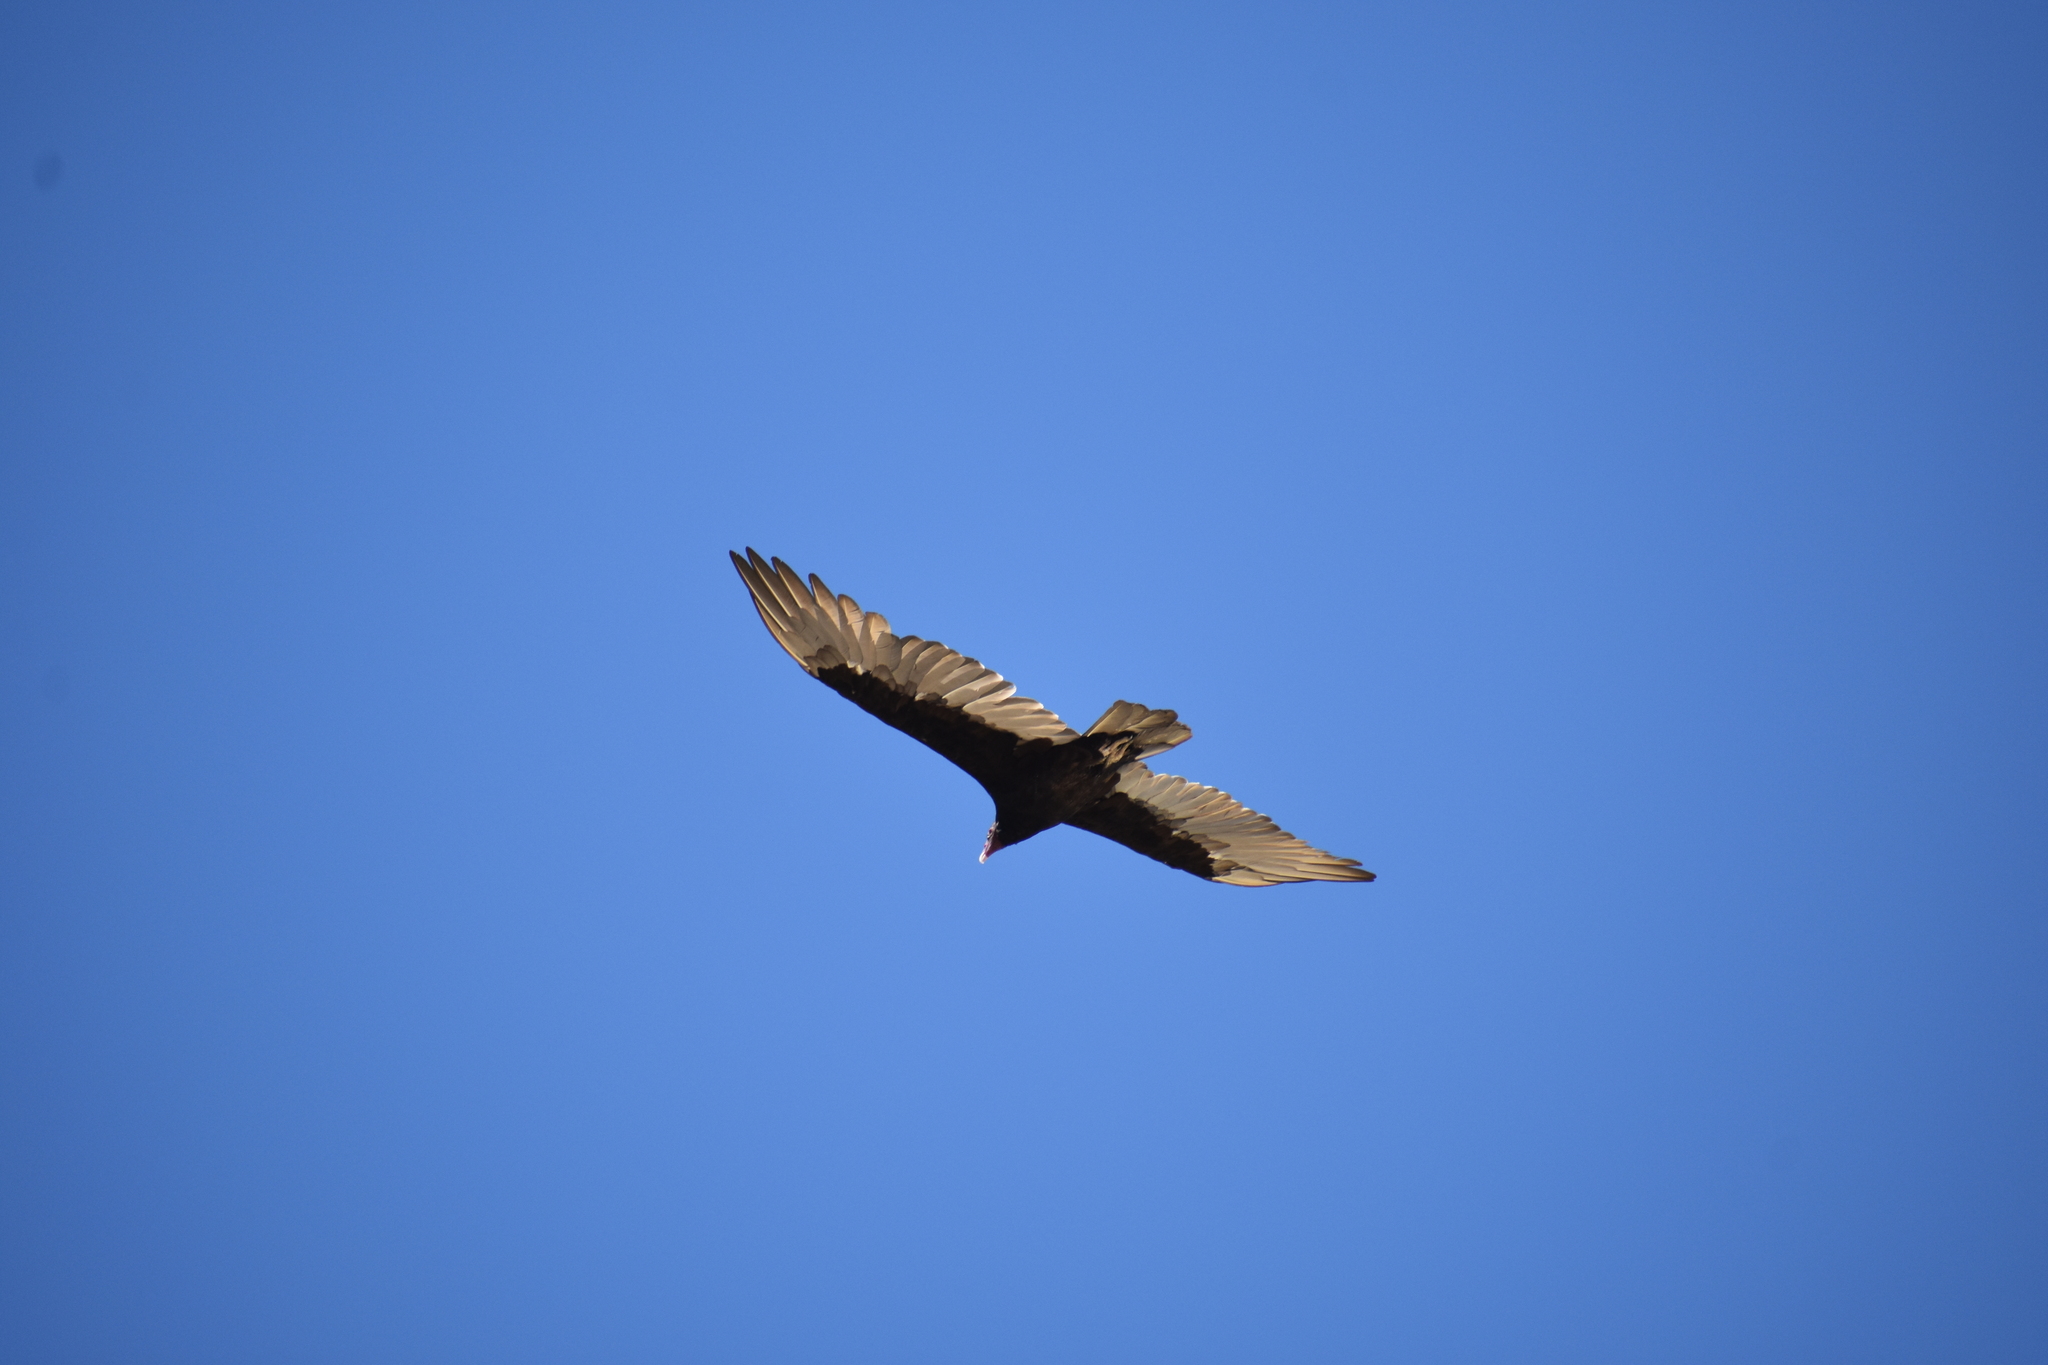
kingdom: Animalia
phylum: Chordata
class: Aves
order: Accipitriformes
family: Cathartidae
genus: Cathartes
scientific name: Cathartes aura
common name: Turkey vulture
